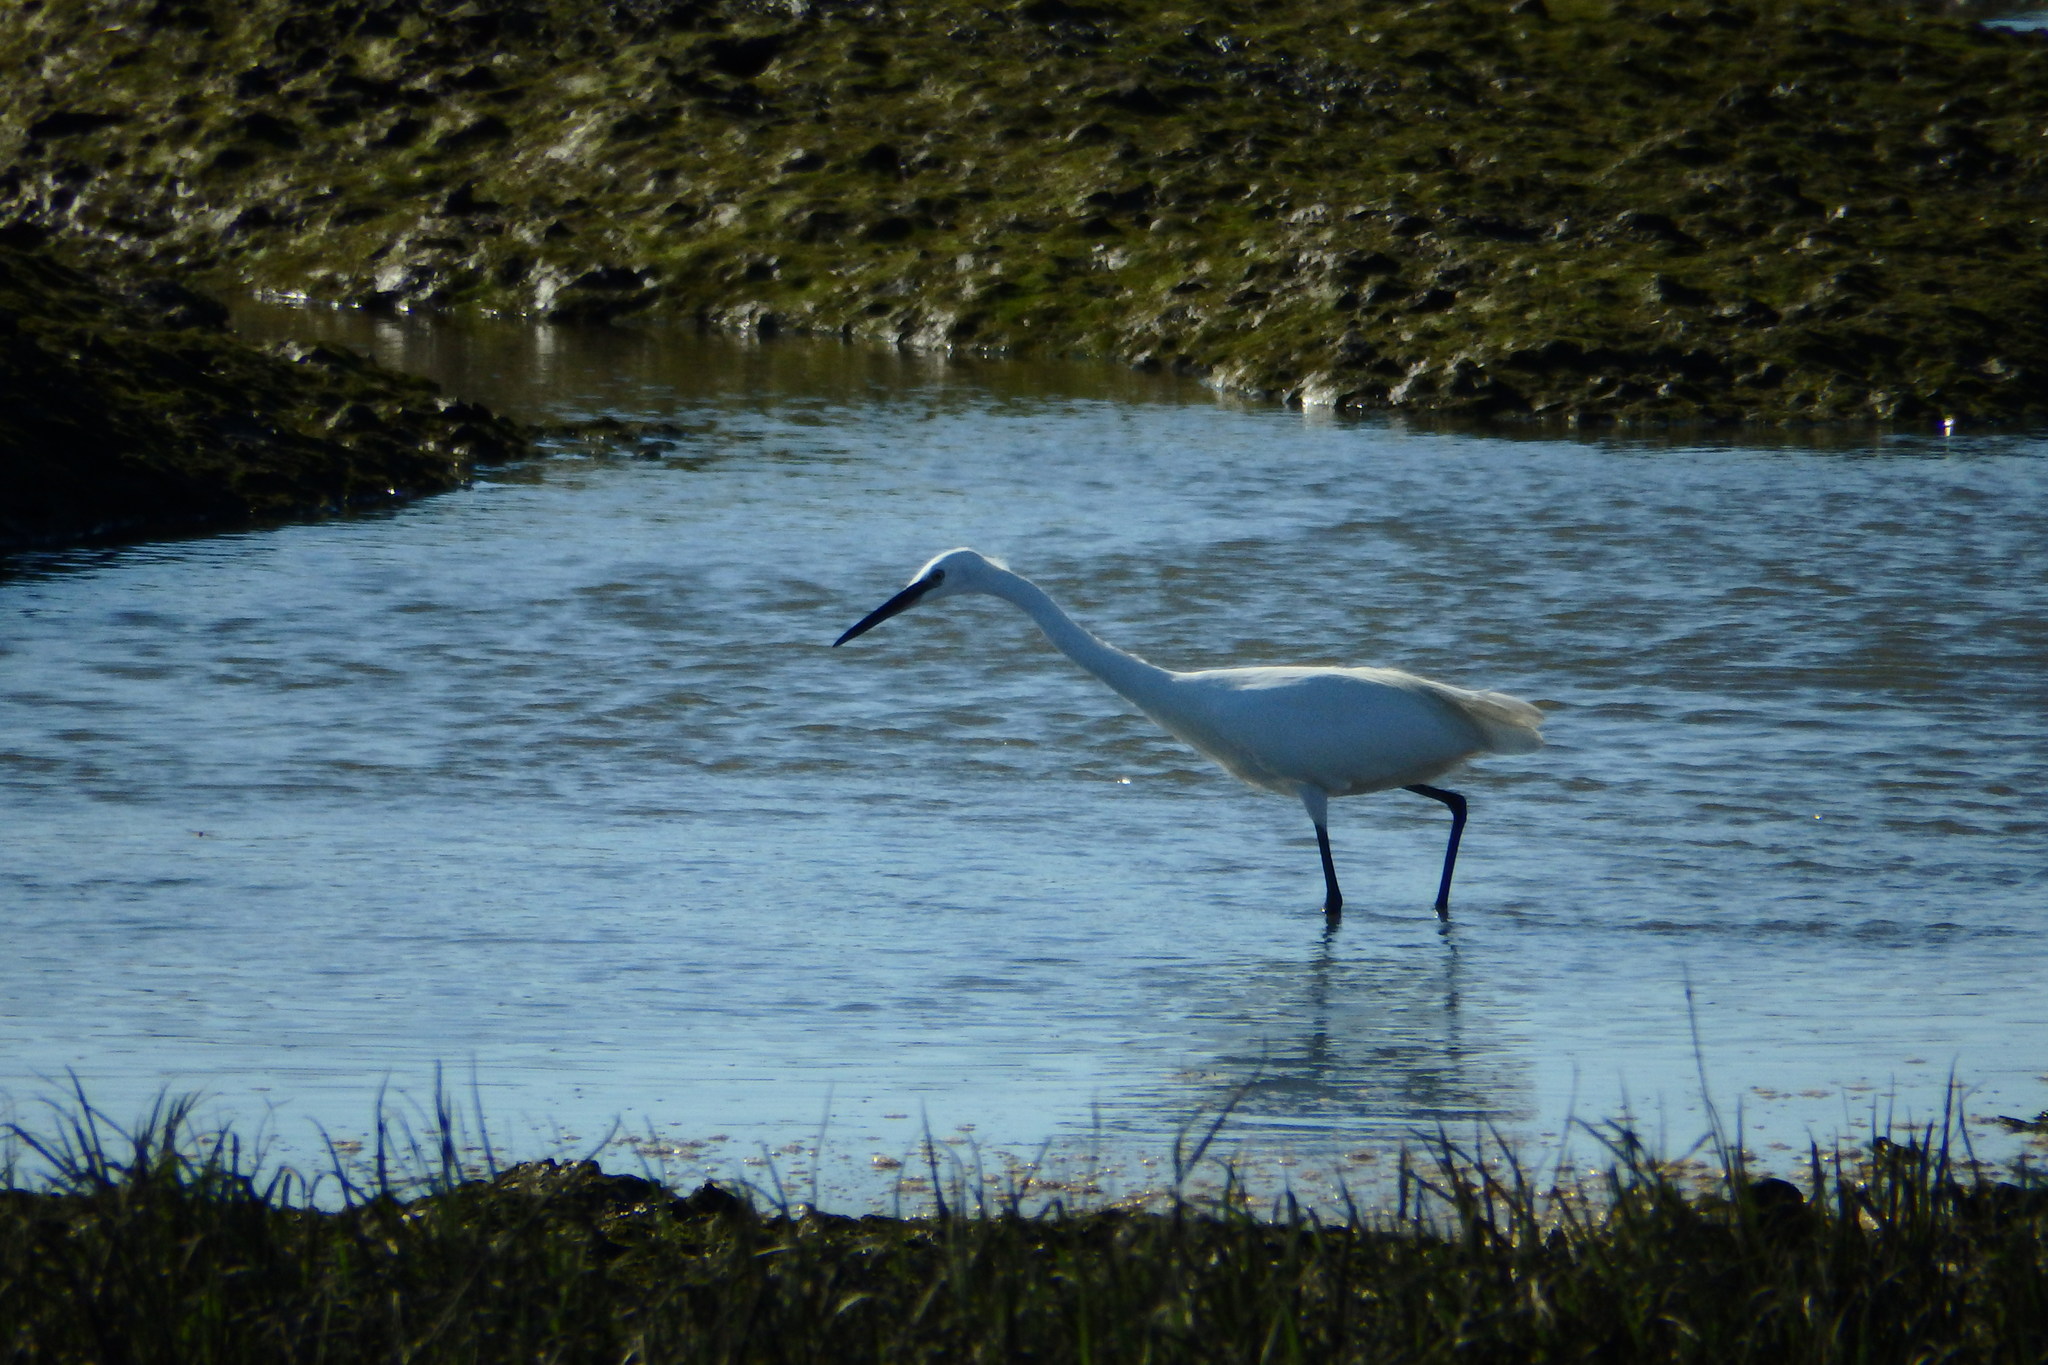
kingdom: Animalia
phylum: Chordata
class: Aves
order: Pelecaniformes
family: Ardeidae
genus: Egretta
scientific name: Egretta garzetta
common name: Little egret
